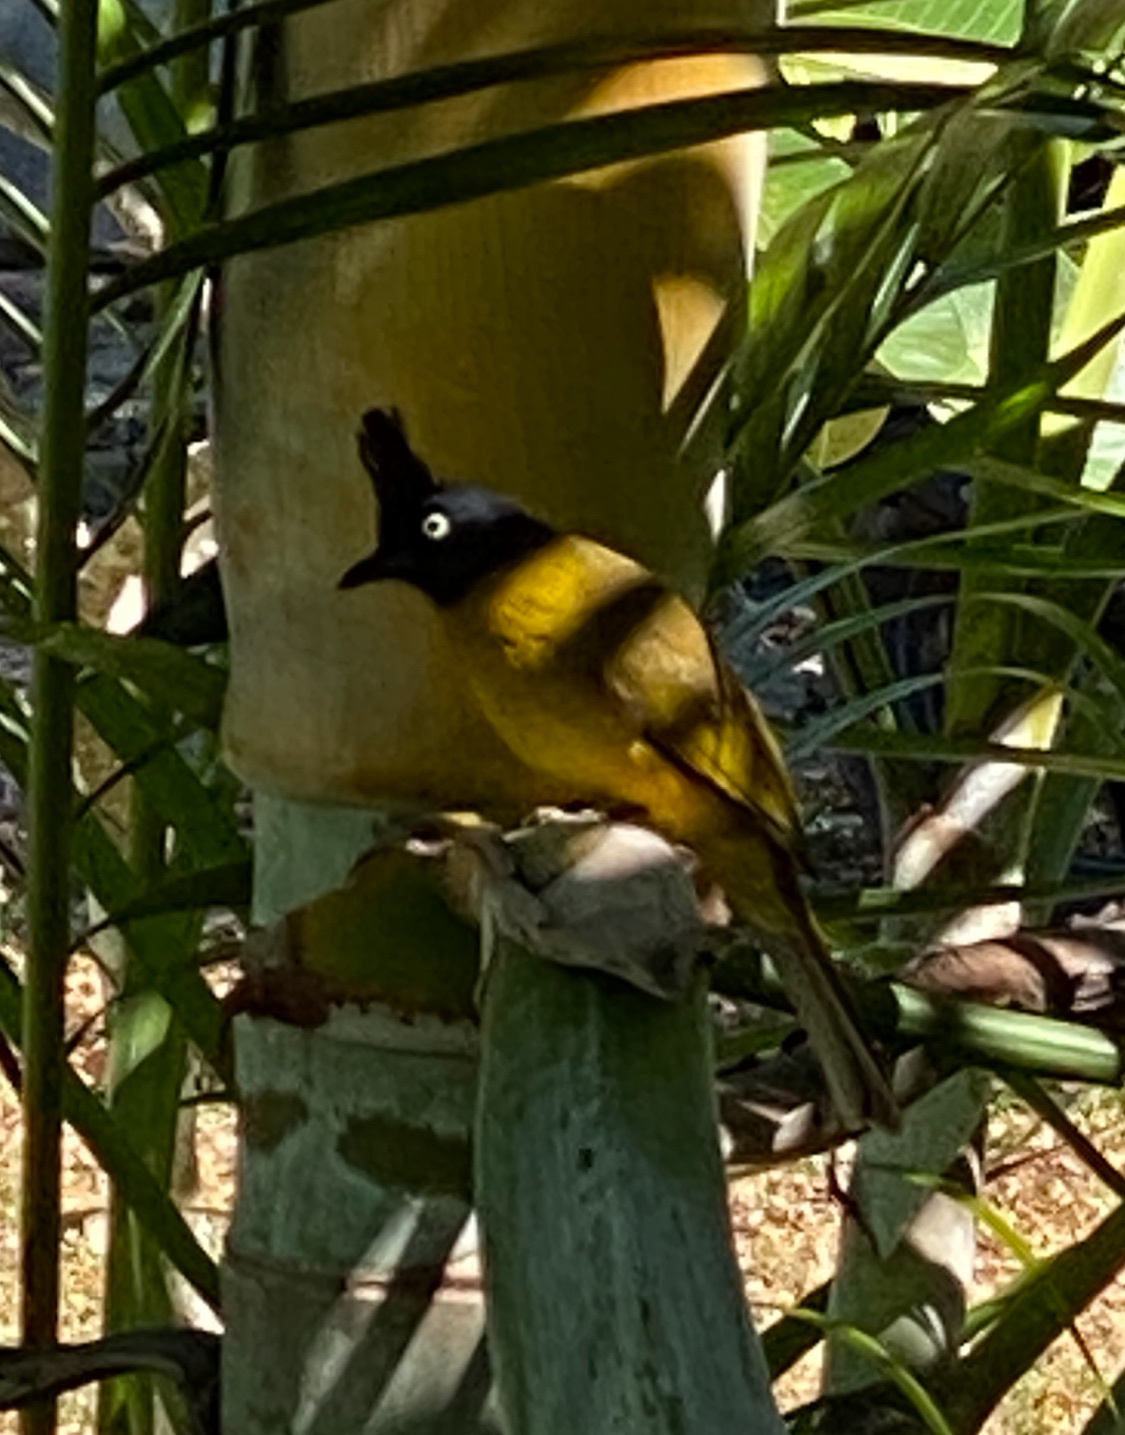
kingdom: Animalia
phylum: Chordata
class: Aves
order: Passeriformes
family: Pycnonotidae
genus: Pycnonotus
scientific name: Pycnonotus flaviventris
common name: Black-crested bulbul
